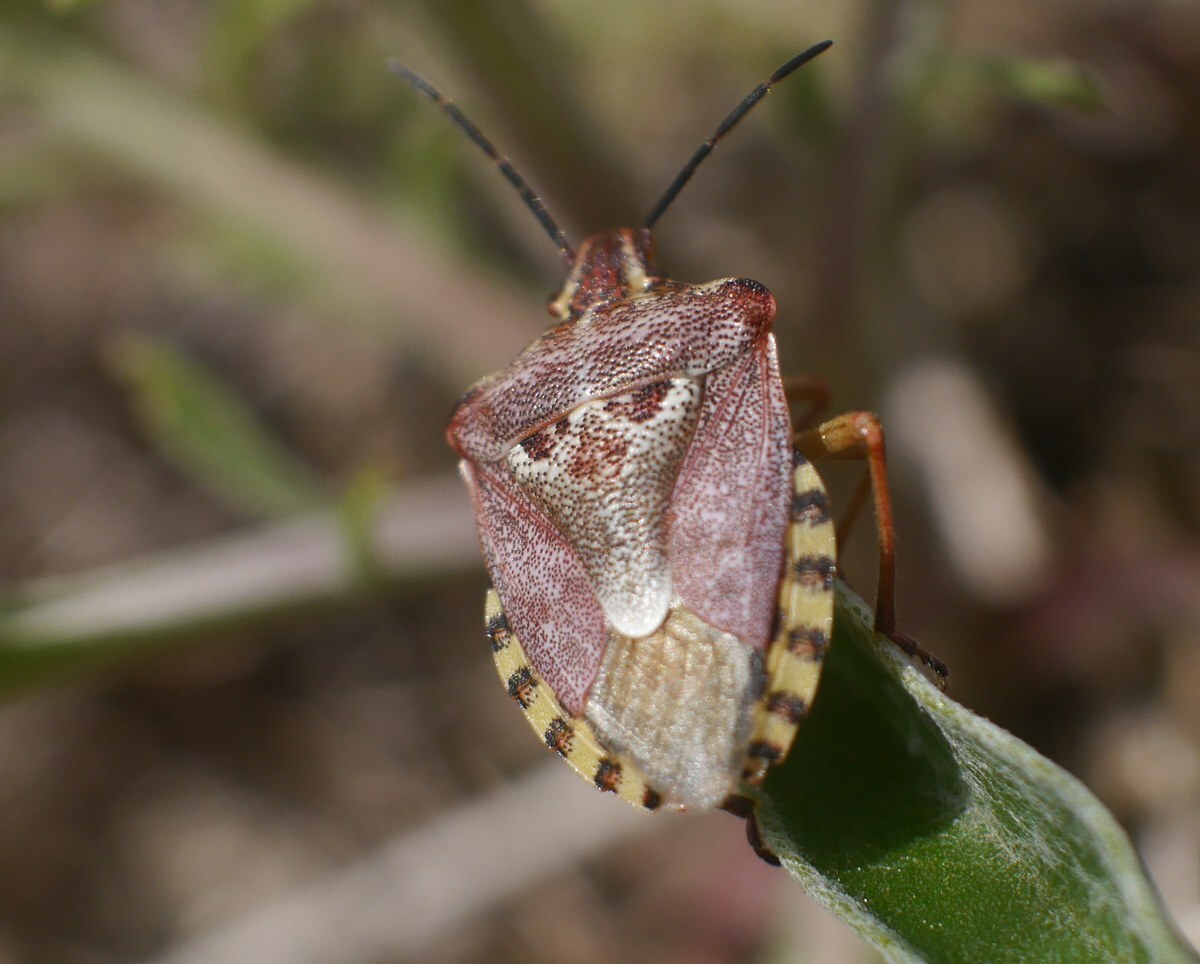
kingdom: Animalia
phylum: Arthropoda
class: Insecta
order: Hemiptera
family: Miridae
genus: Orthops
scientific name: Orthops kalmii
